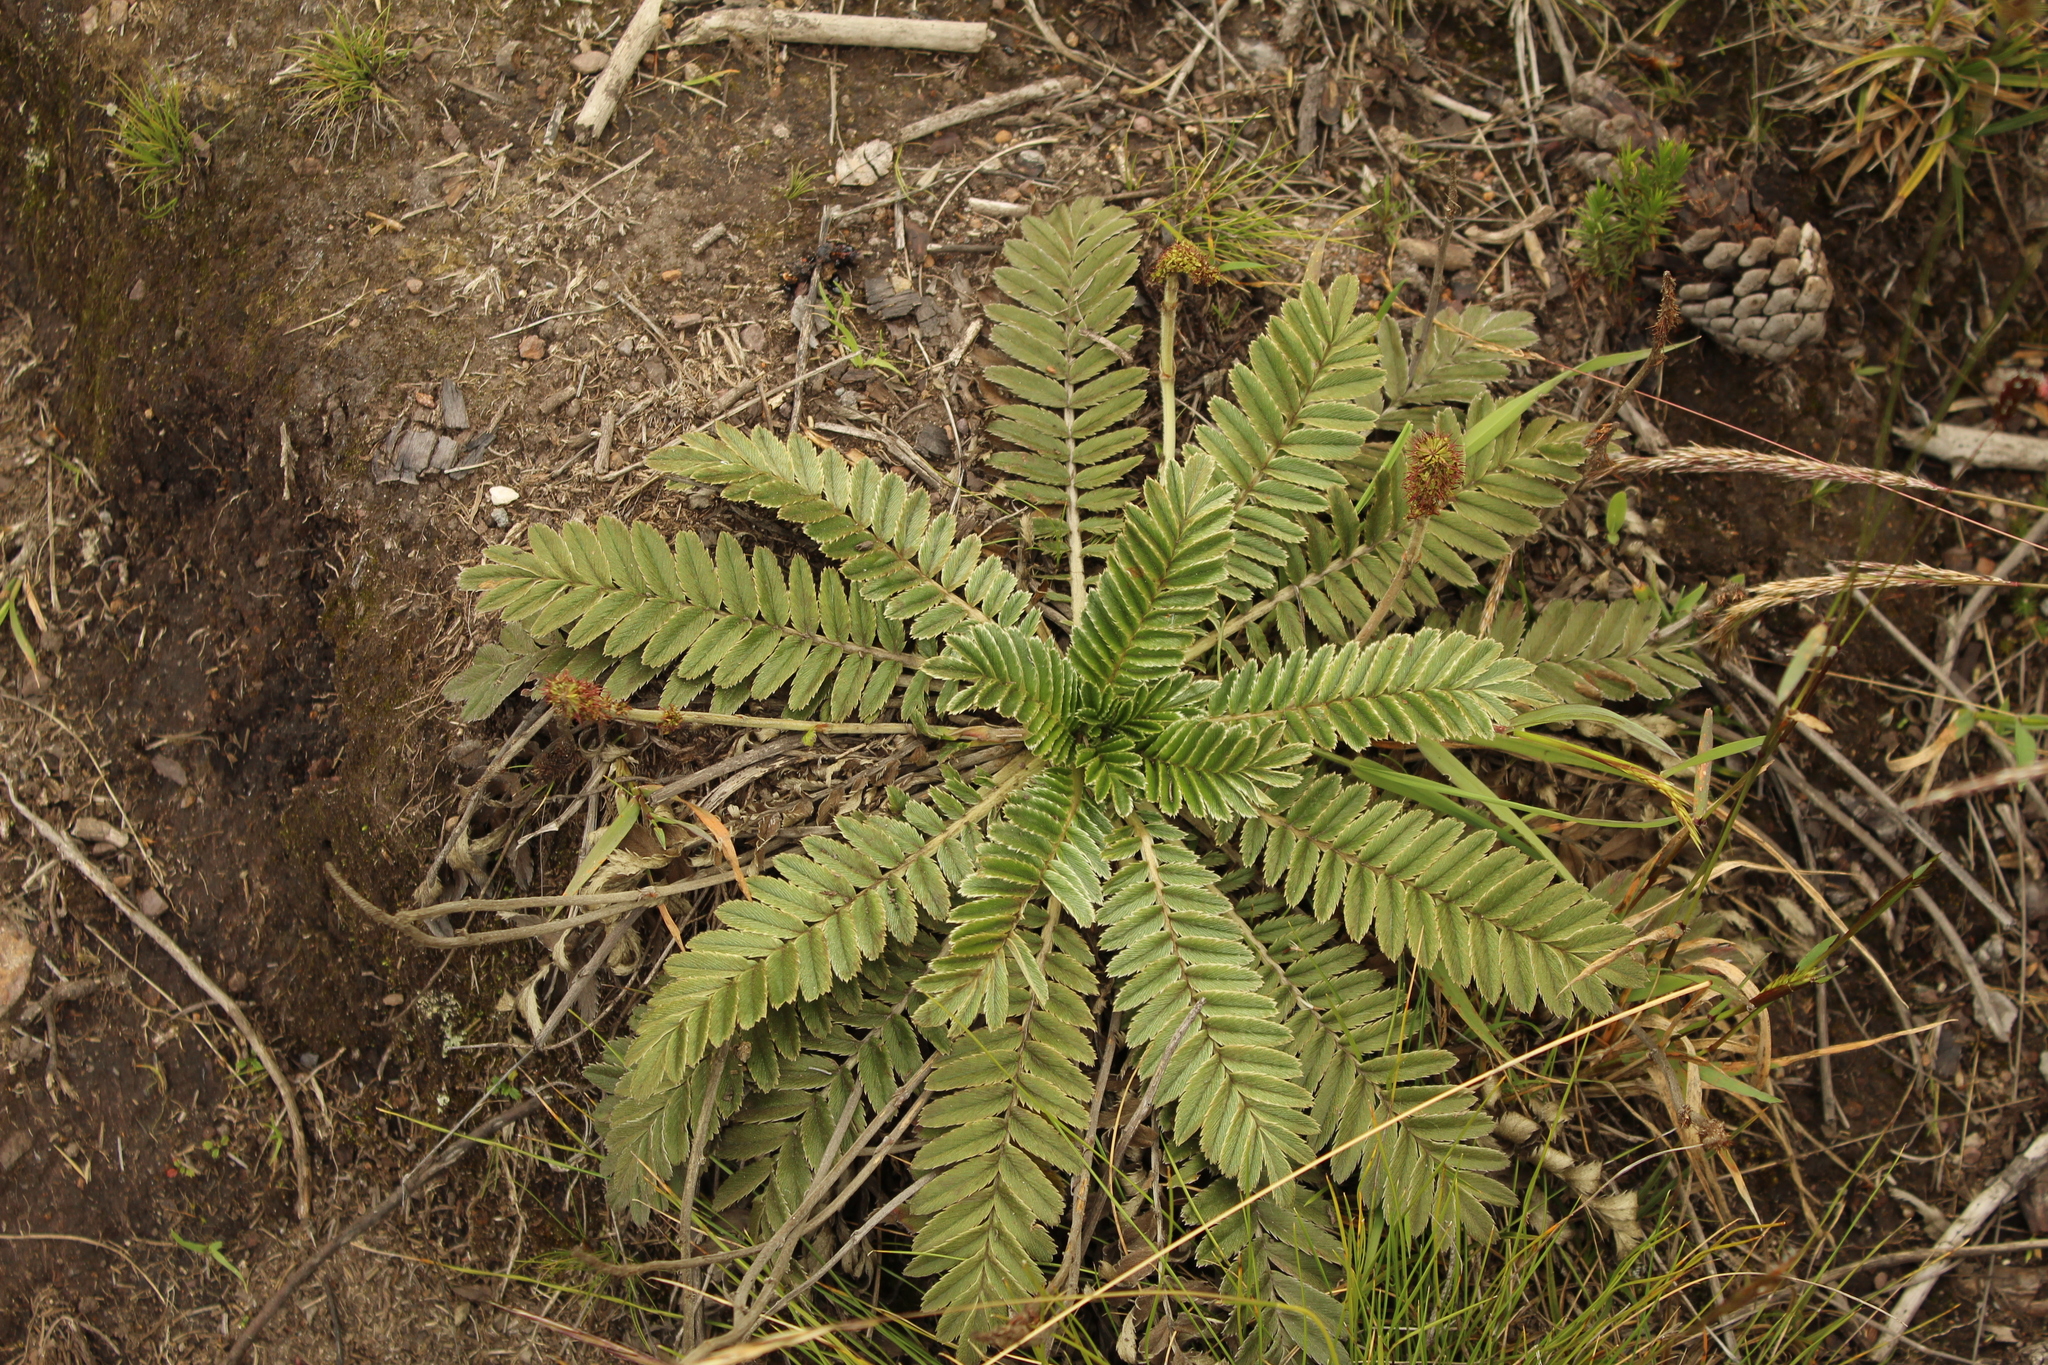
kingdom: Plantae
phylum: Tracheophyta
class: Magnoliopsida
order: Rosales
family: Rosaceae
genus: Acaena
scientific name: Acaena cylindristachya
